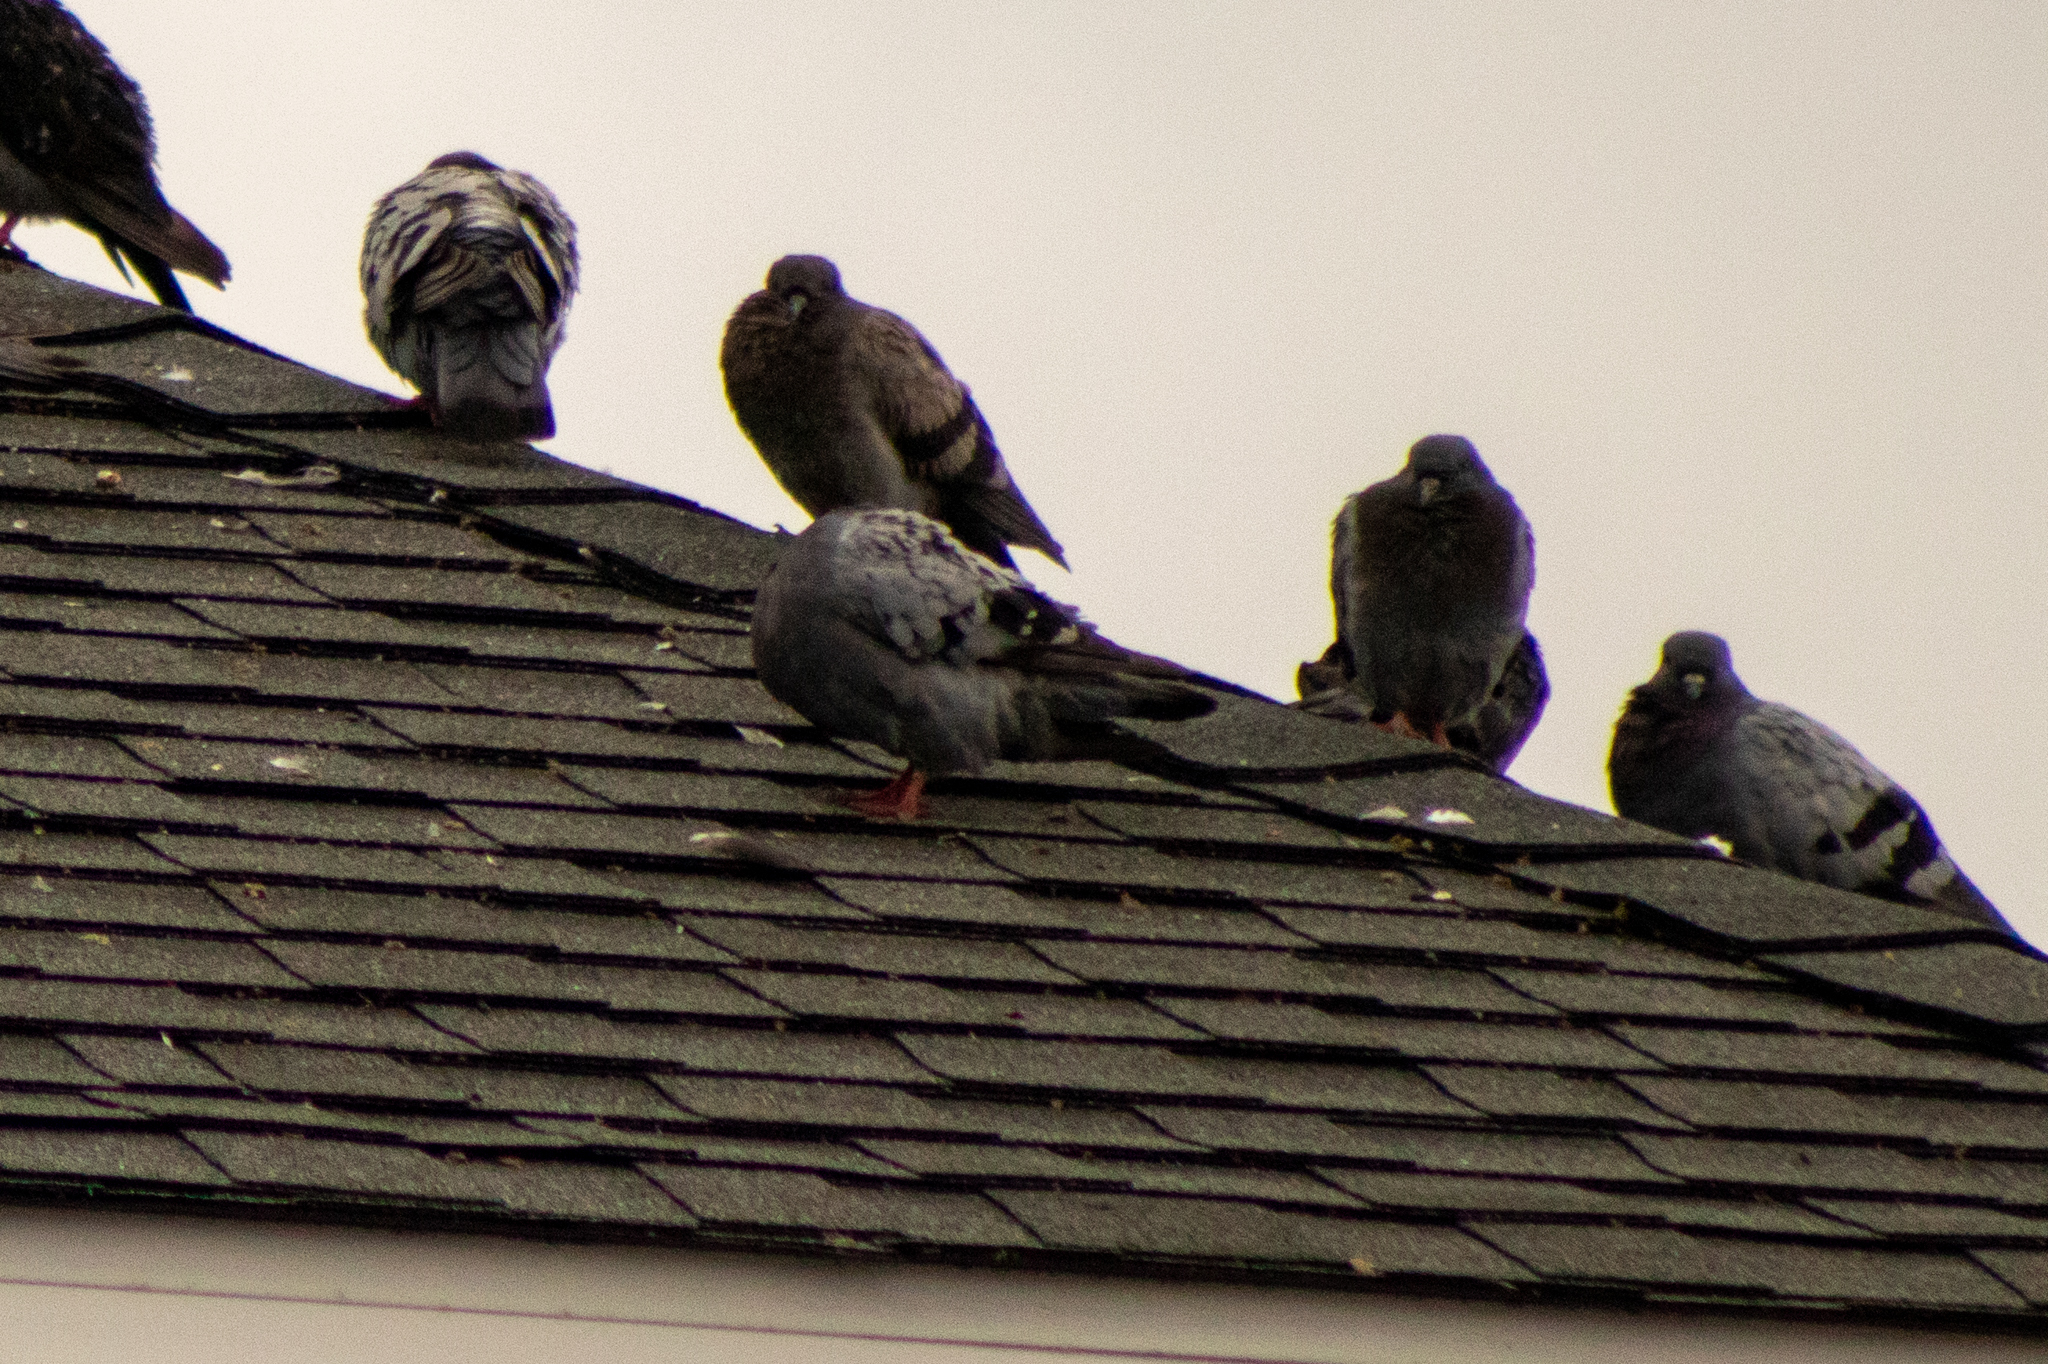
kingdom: Animalia
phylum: Chordata
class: Aves
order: Columbiformes
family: Columbidae
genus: Columba
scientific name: Columba livia
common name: Rock pigeon
